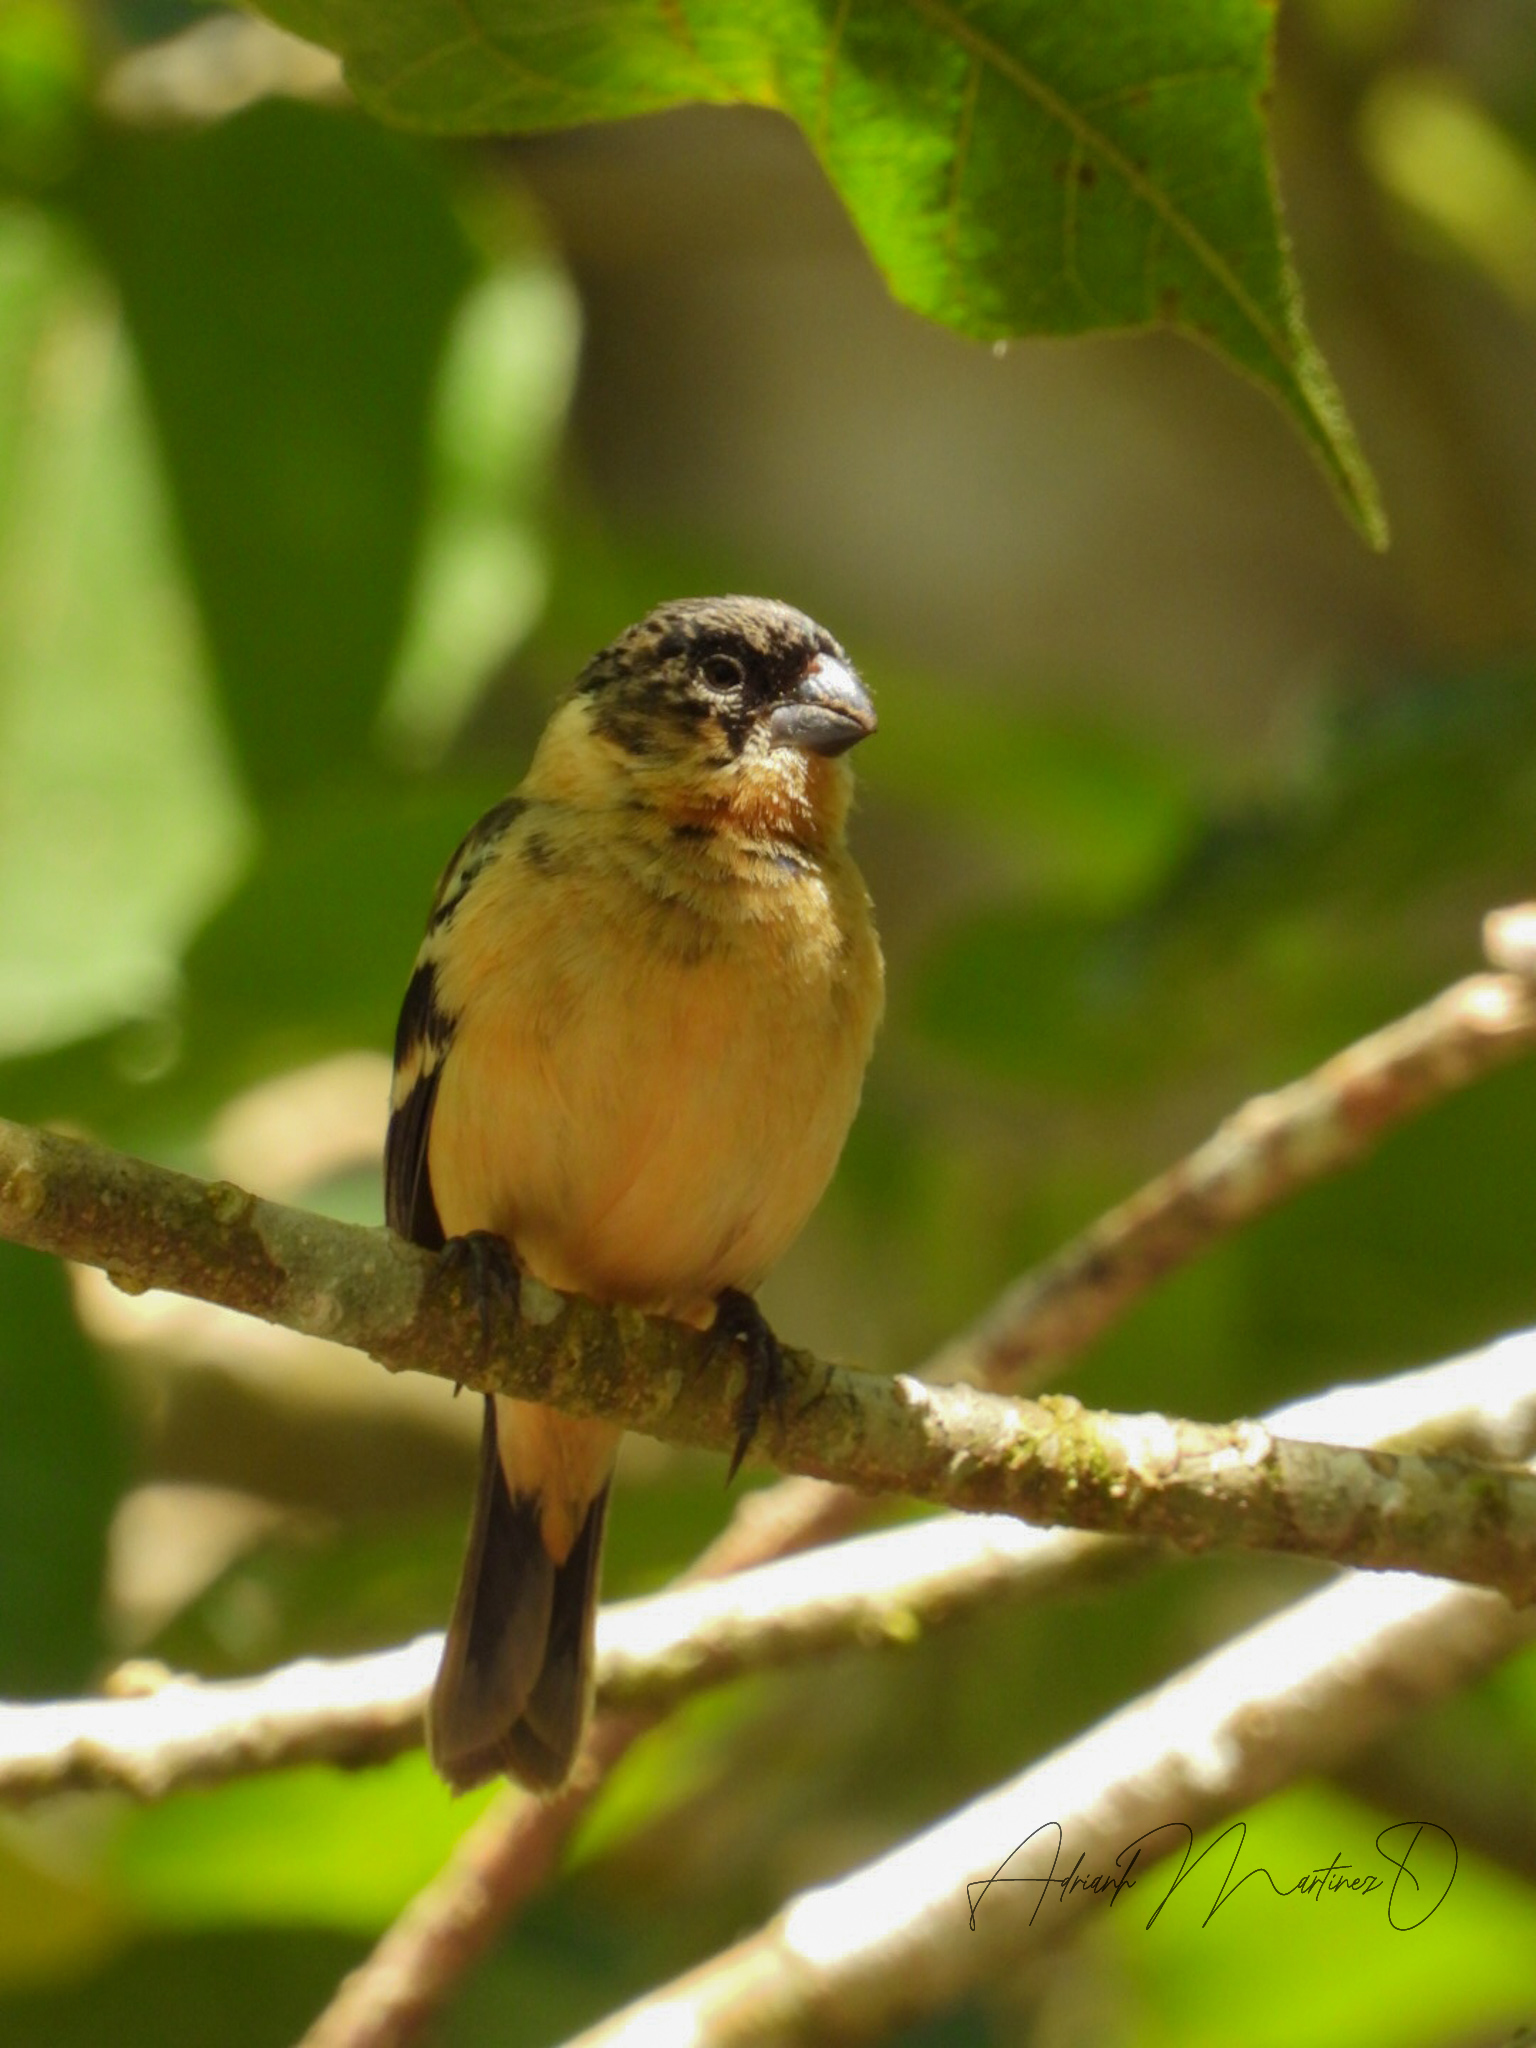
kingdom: Animalia
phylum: Chordata
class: Aves
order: Passeriformes
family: Thraupidae
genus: Sporophila
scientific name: Sporophila morelleti
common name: Morelet's seedeater
